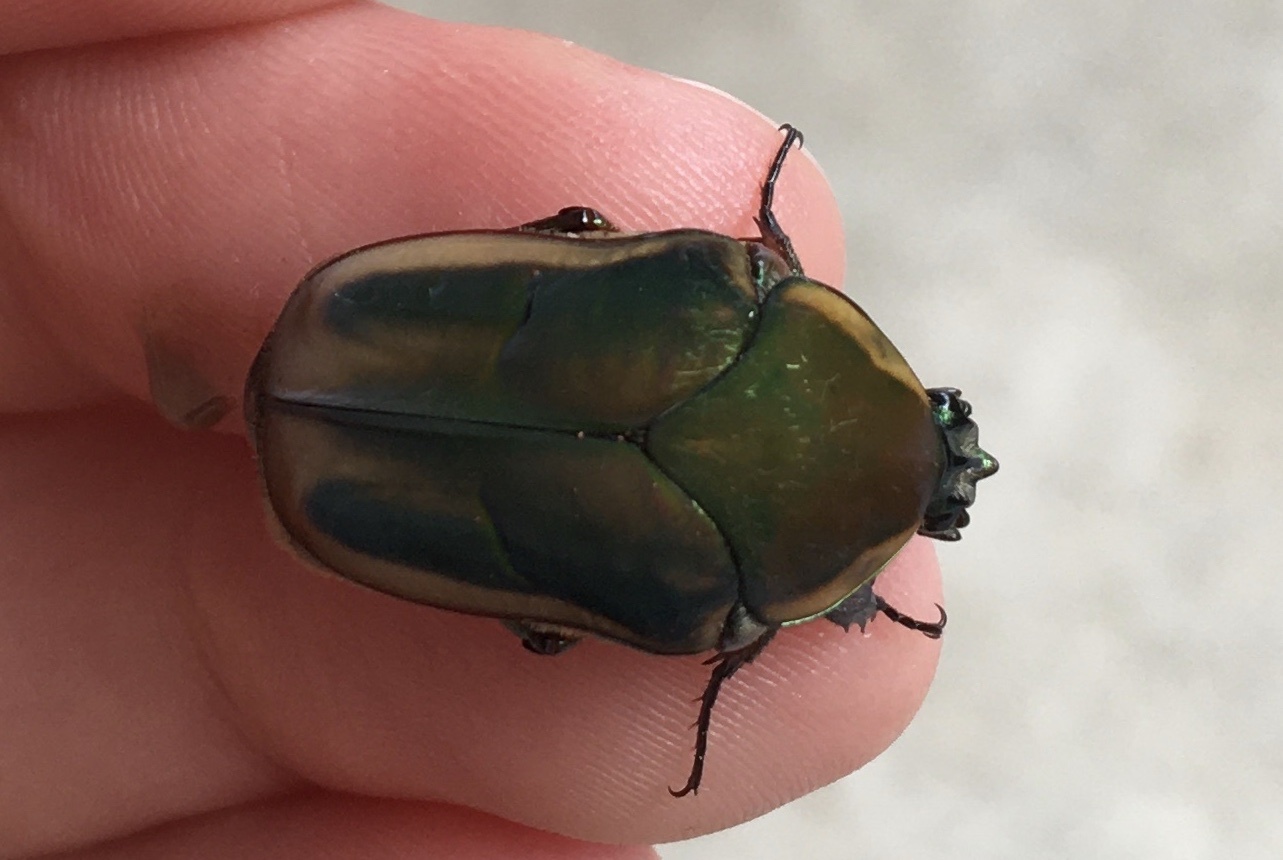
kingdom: Animalia
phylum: Arthropoda
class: Insecta
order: Coleoptera
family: Scarabaeidae
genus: Cotinis
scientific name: Cotinis nitida
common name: Common green june beetle
